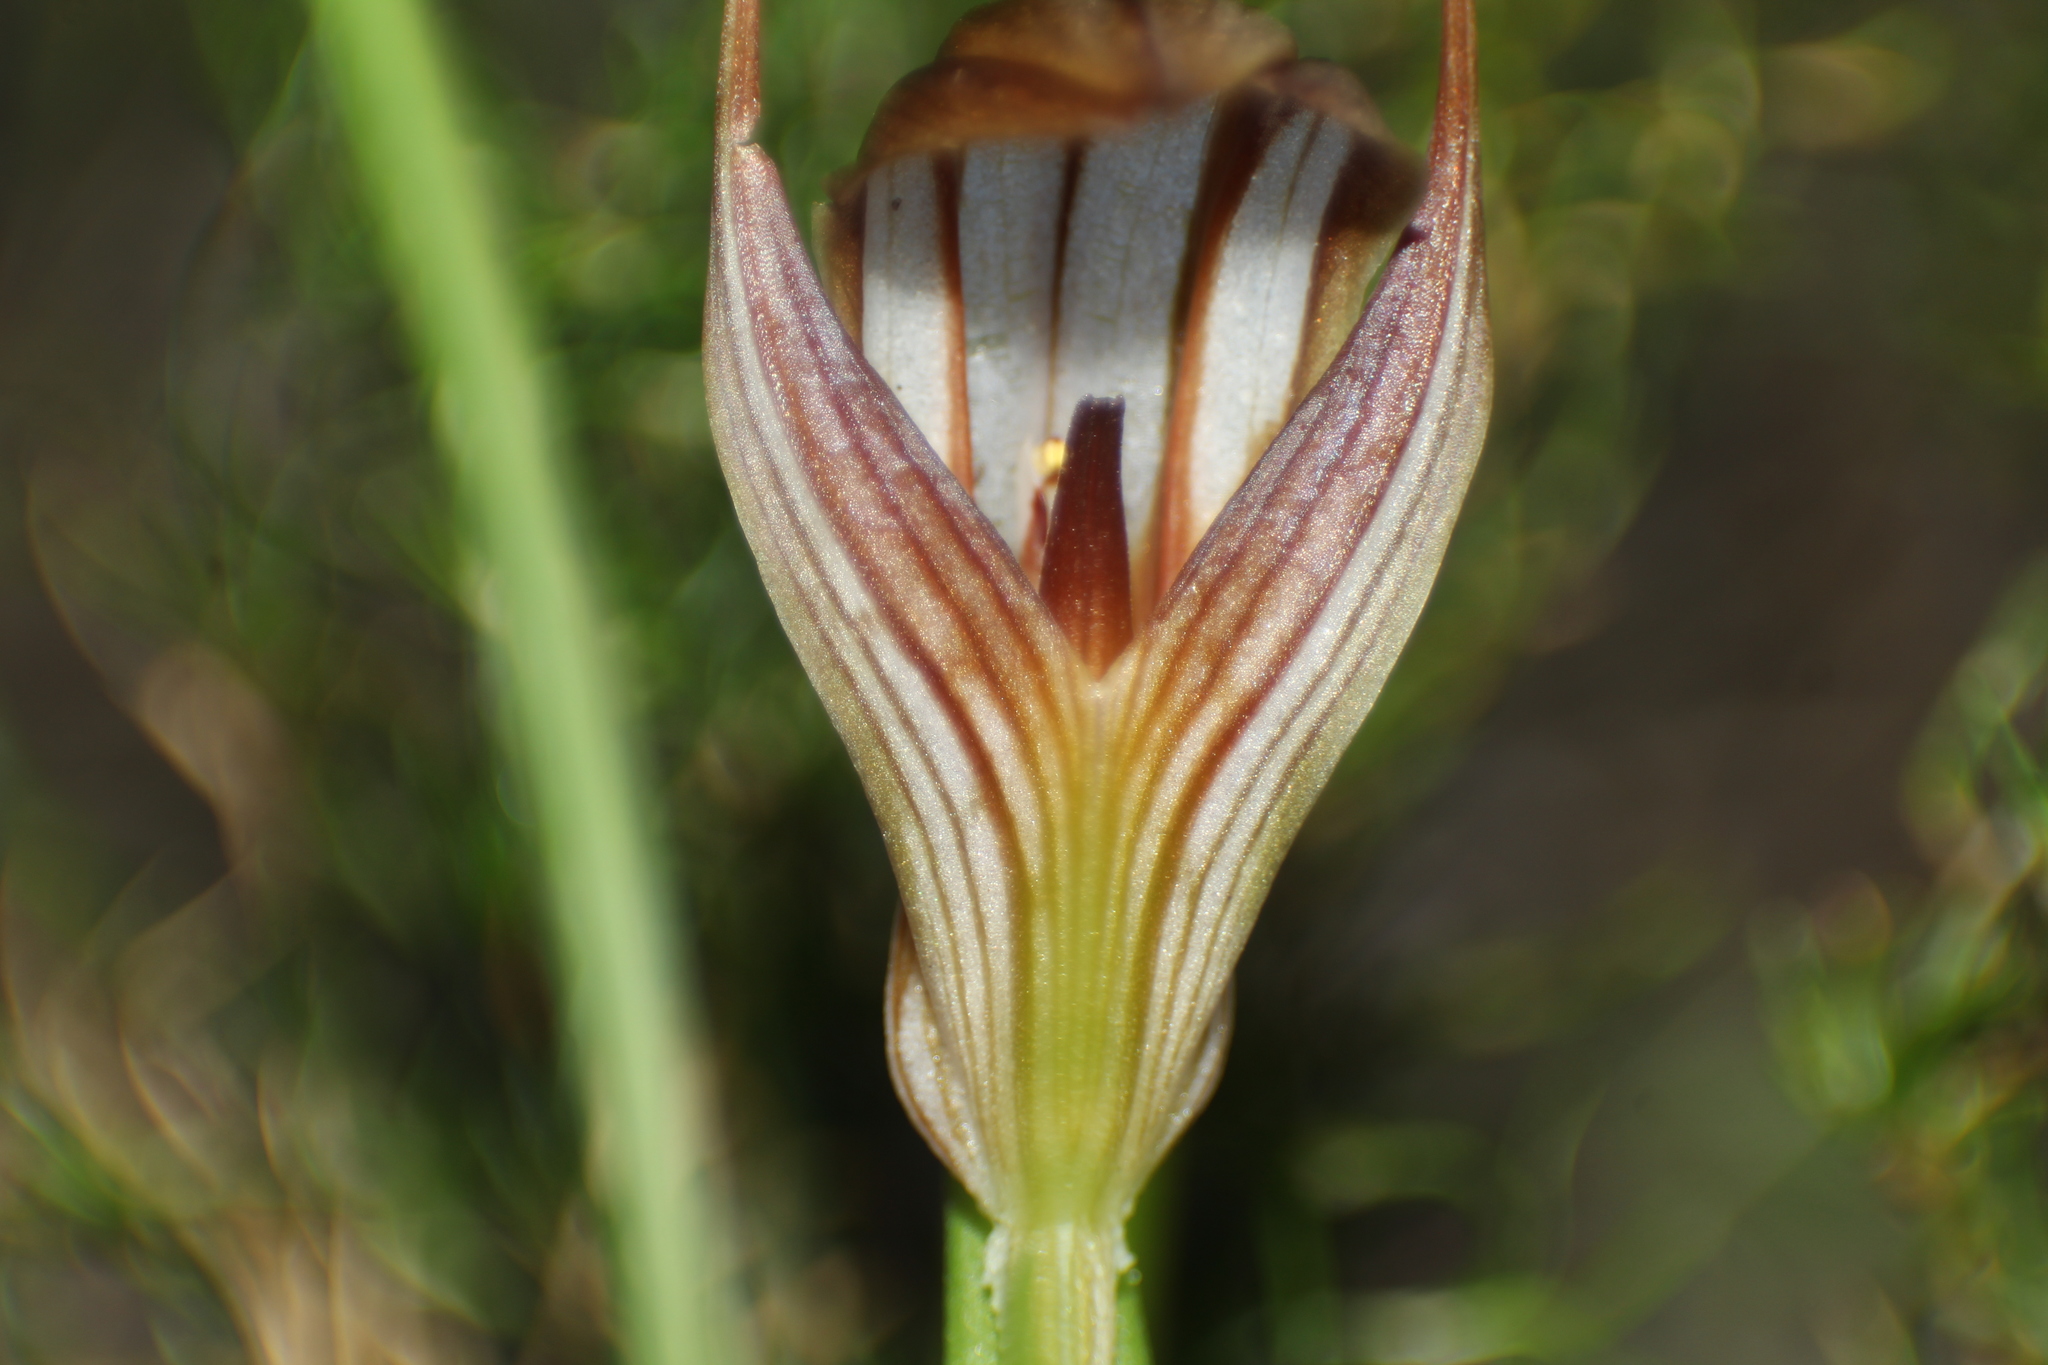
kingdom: Plantae
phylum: Tracheophyta
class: Liliopsida
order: Asparagales
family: Orchidaceae
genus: Pterostylis
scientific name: Pterostylis rogersii
